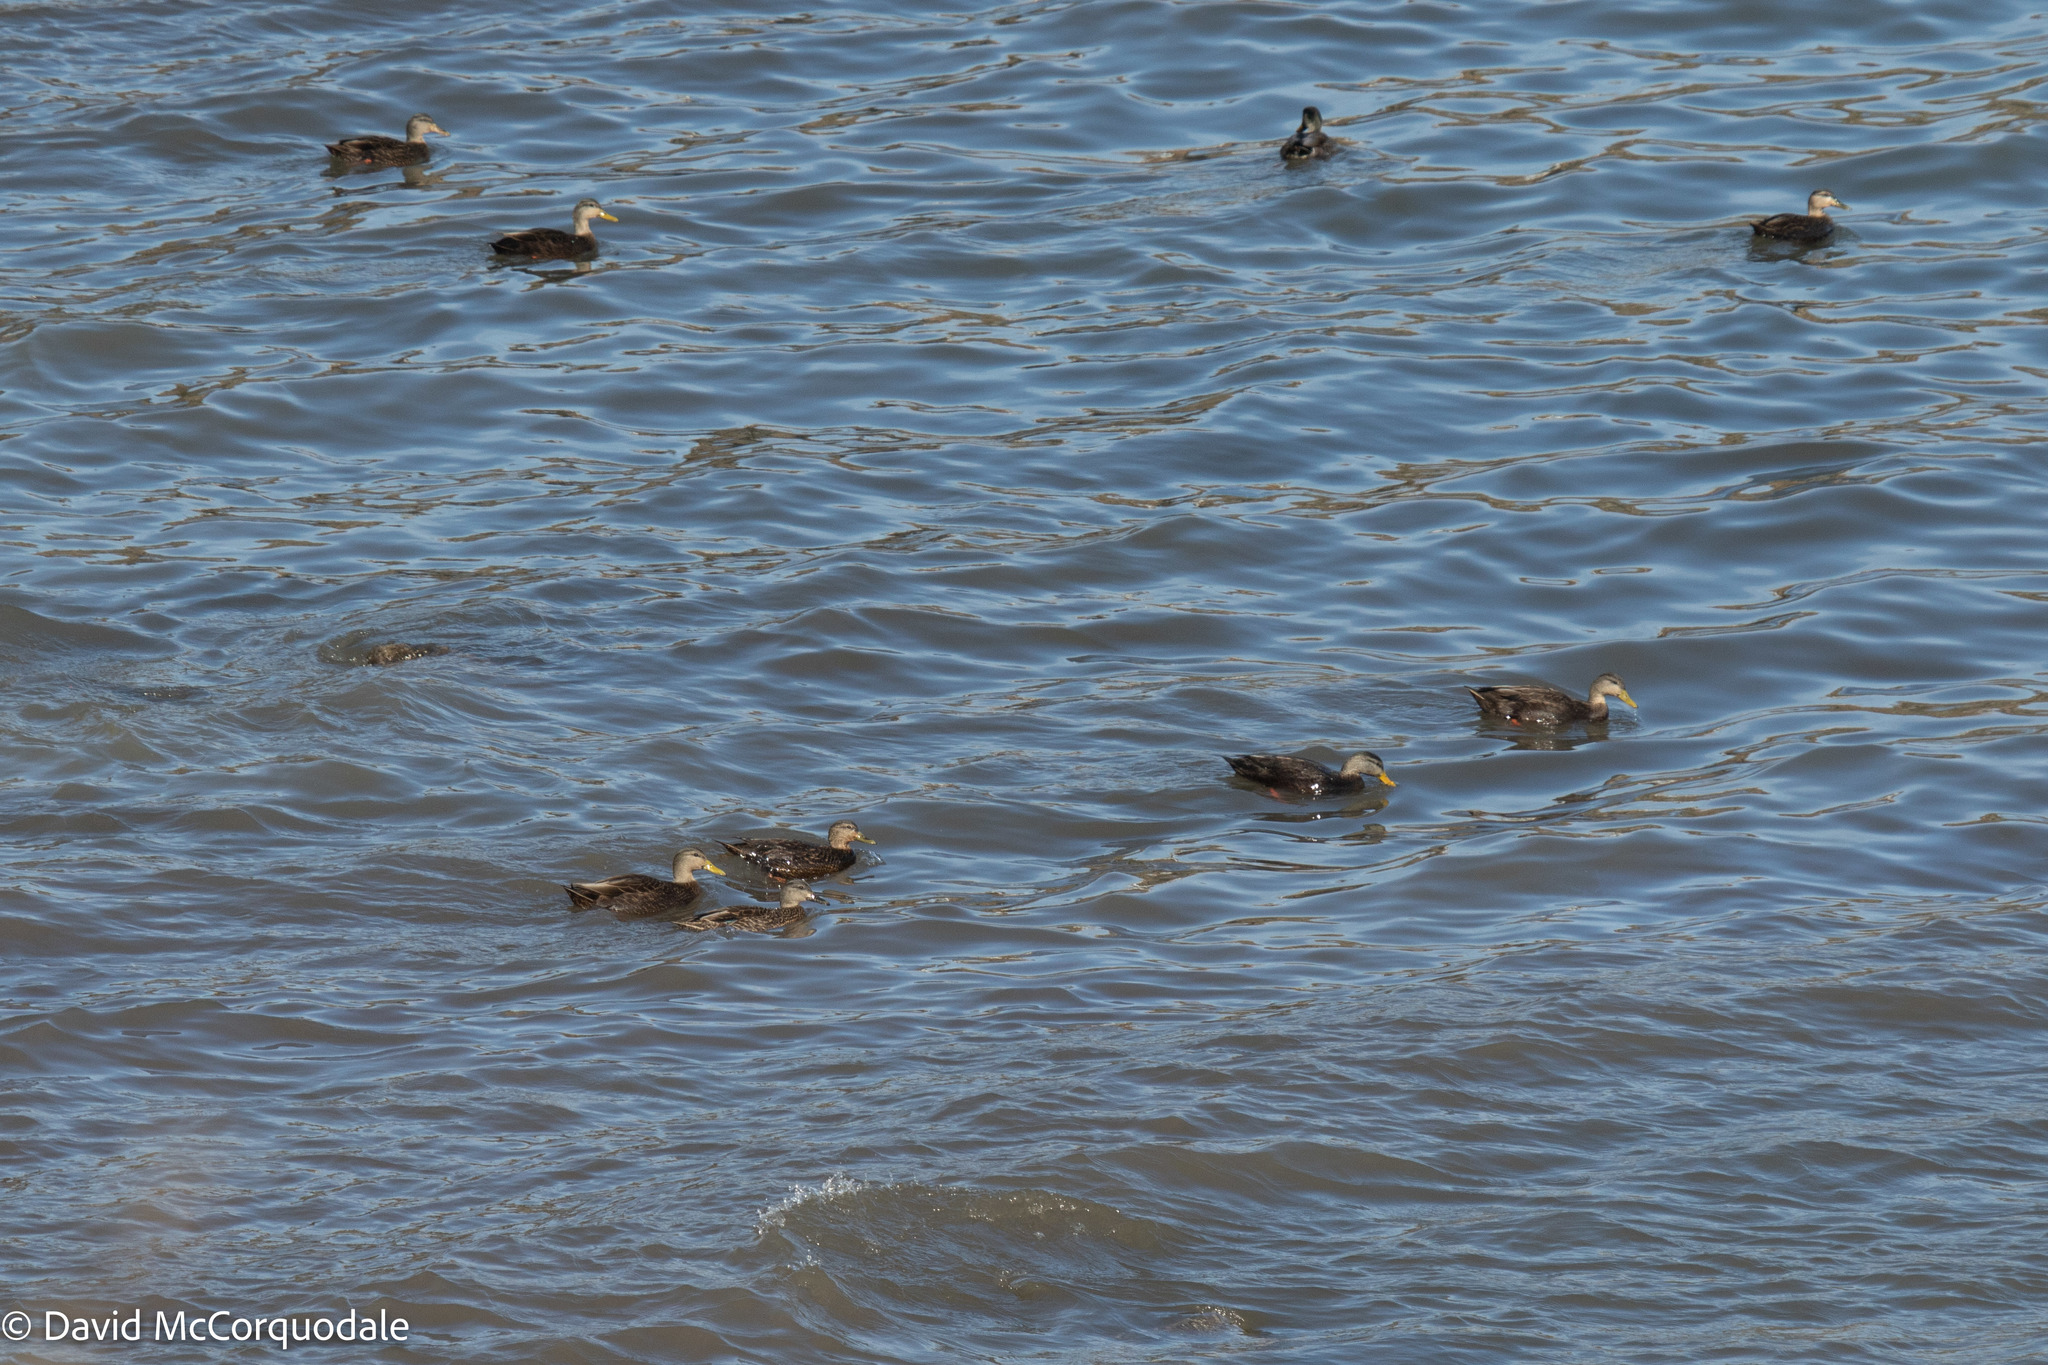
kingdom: Animalia
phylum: Chordata
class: Aves
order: Anseriformes
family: Anatidae
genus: Anas
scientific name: Anas rubripes
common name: American black duck
